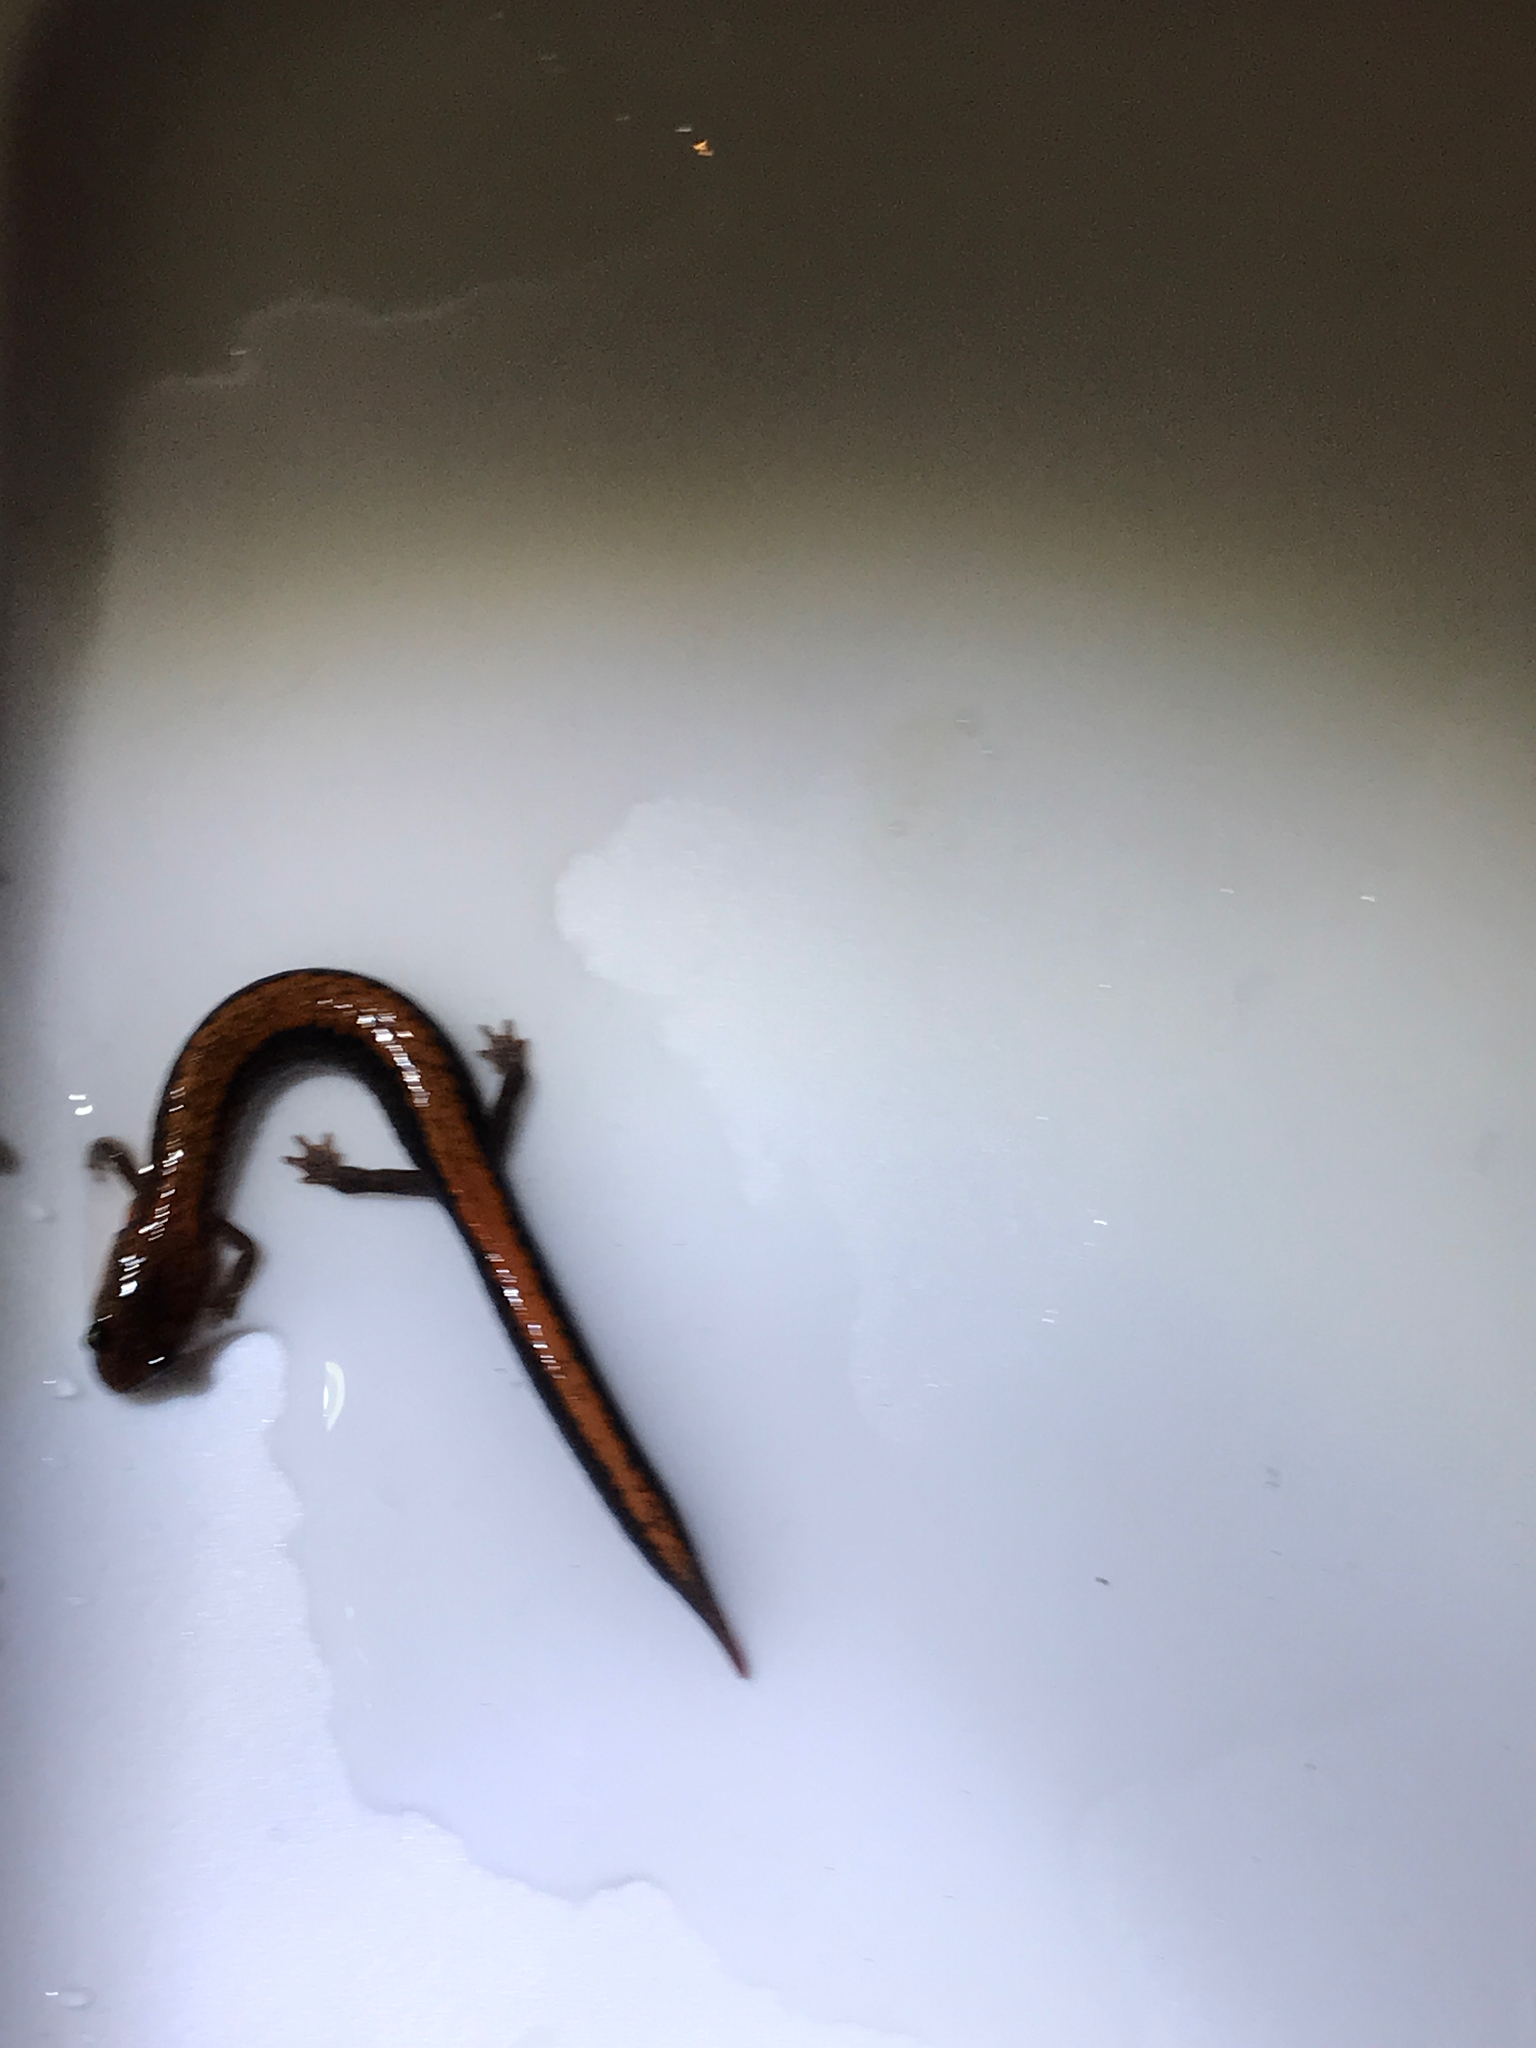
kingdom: Animalia
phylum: Chordata
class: Amphibia
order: Caudata
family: Plethodontidae
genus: Plethodon
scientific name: Plethodon cinereus
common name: Redback salamander
